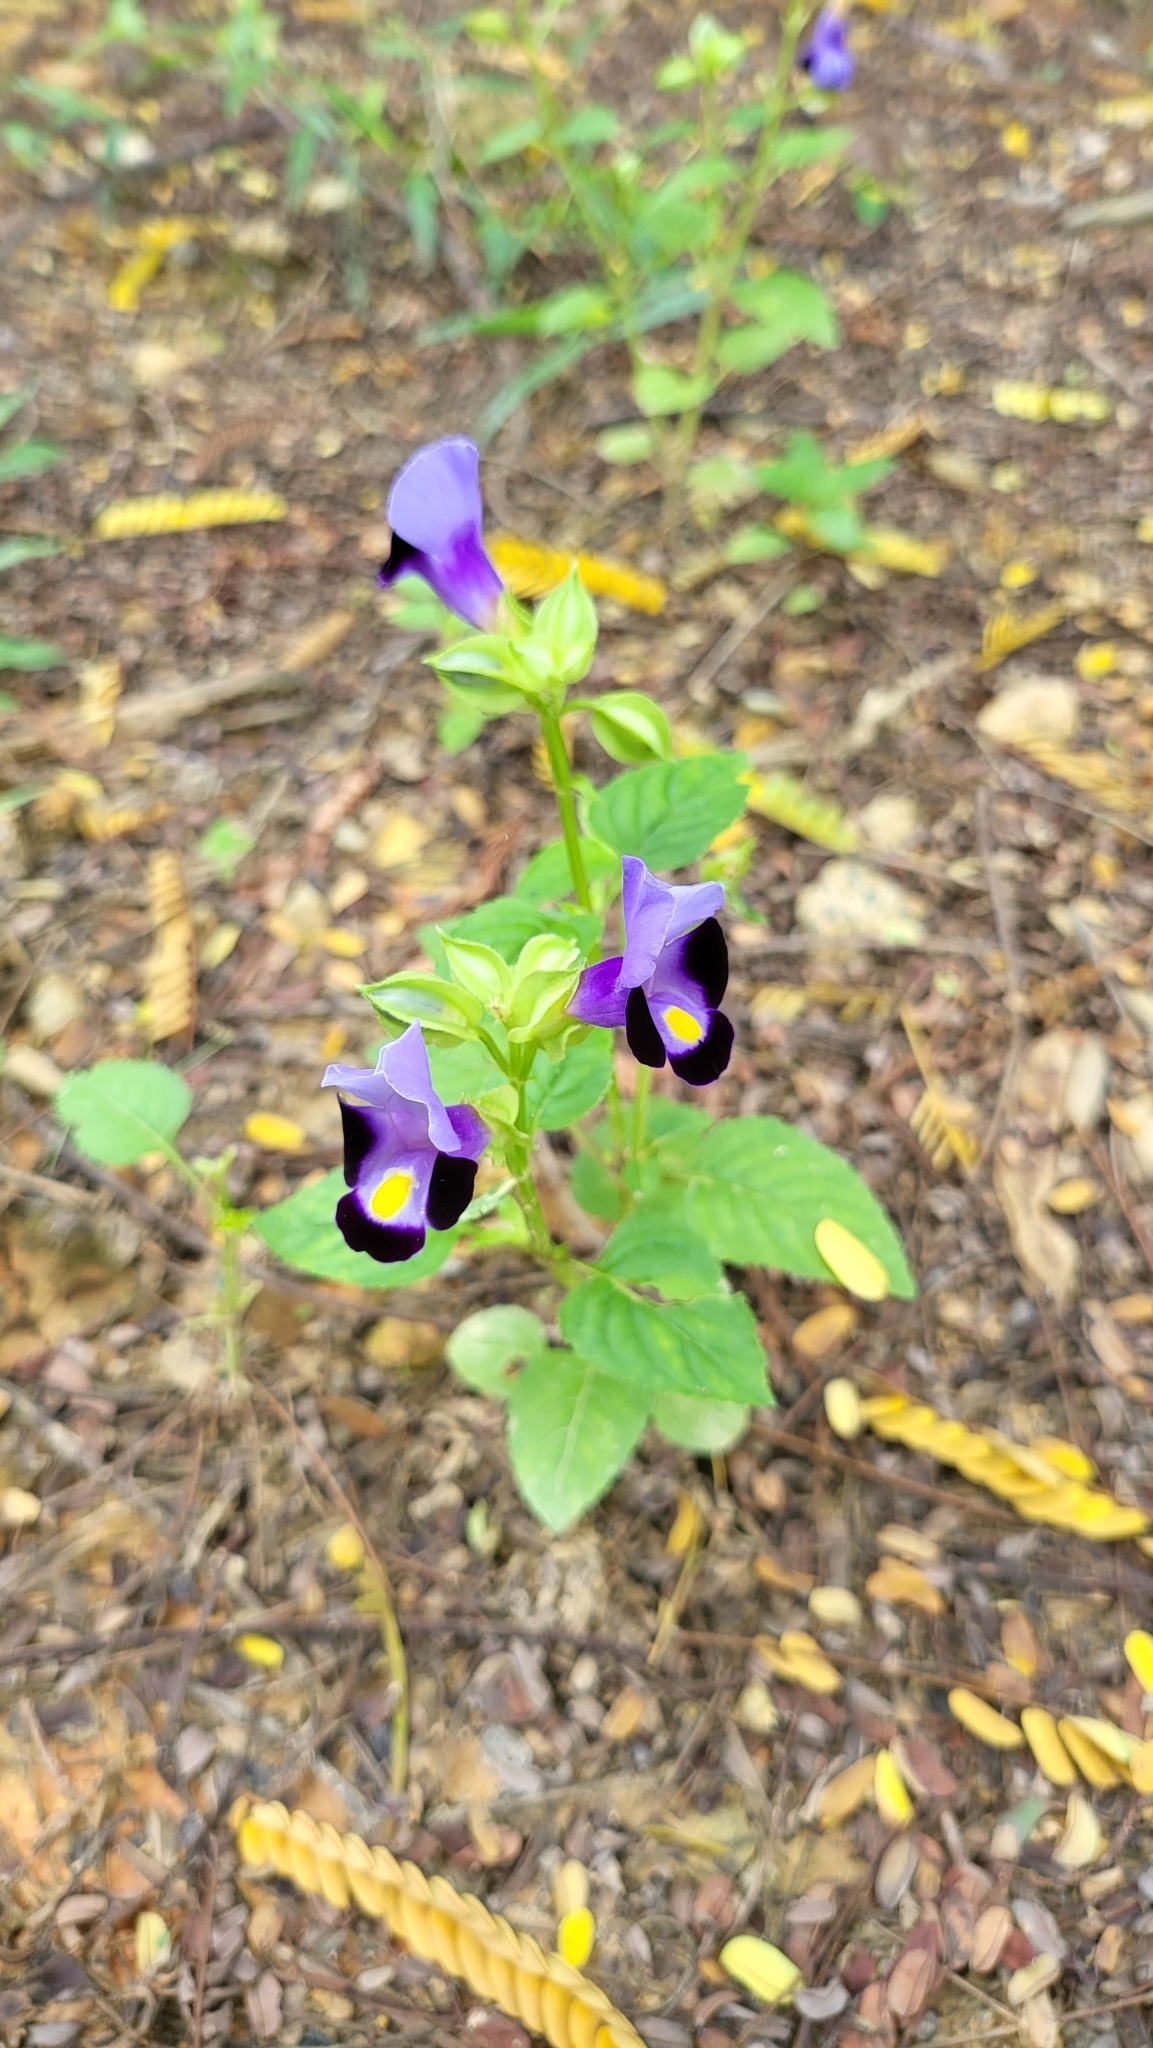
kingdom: Plantae
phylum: Tracheophyta
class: Magnoliopsida
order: Lamiales
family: Linderniaceae
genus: Torenia
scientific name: Torenia fournieri
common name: Bluewings
